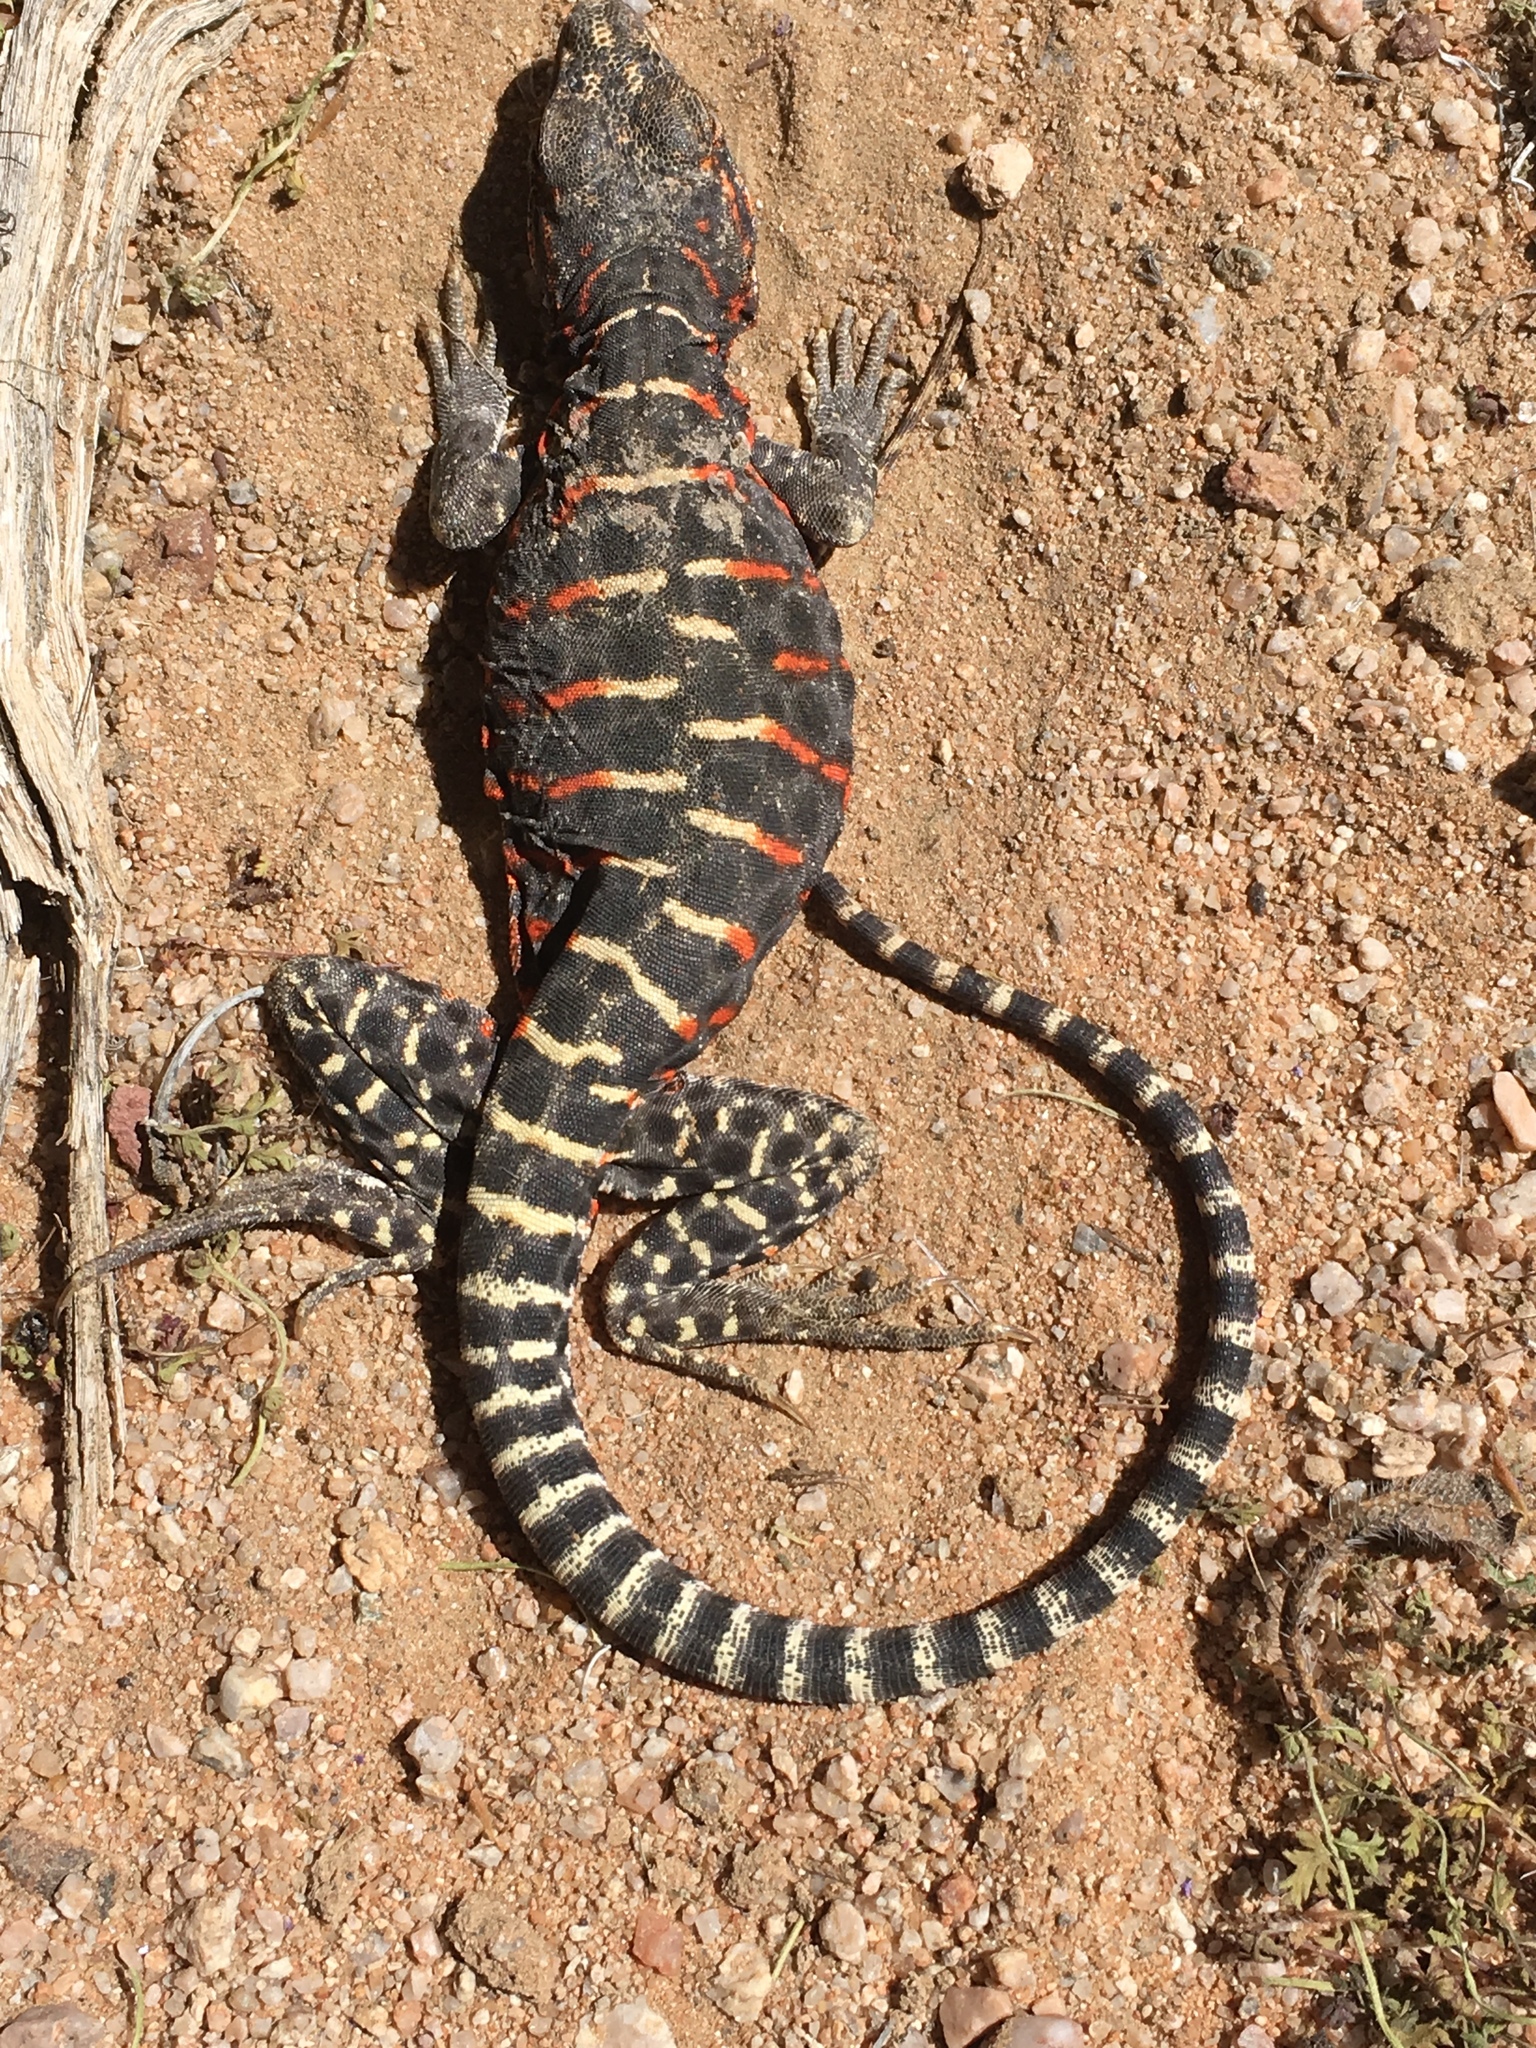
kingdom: Animalia
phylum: Chordata
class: Squamata
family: Crotaphytidae
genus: Gambelia
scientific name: Gambelia wislizenii
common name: Longnose leopard lizard
